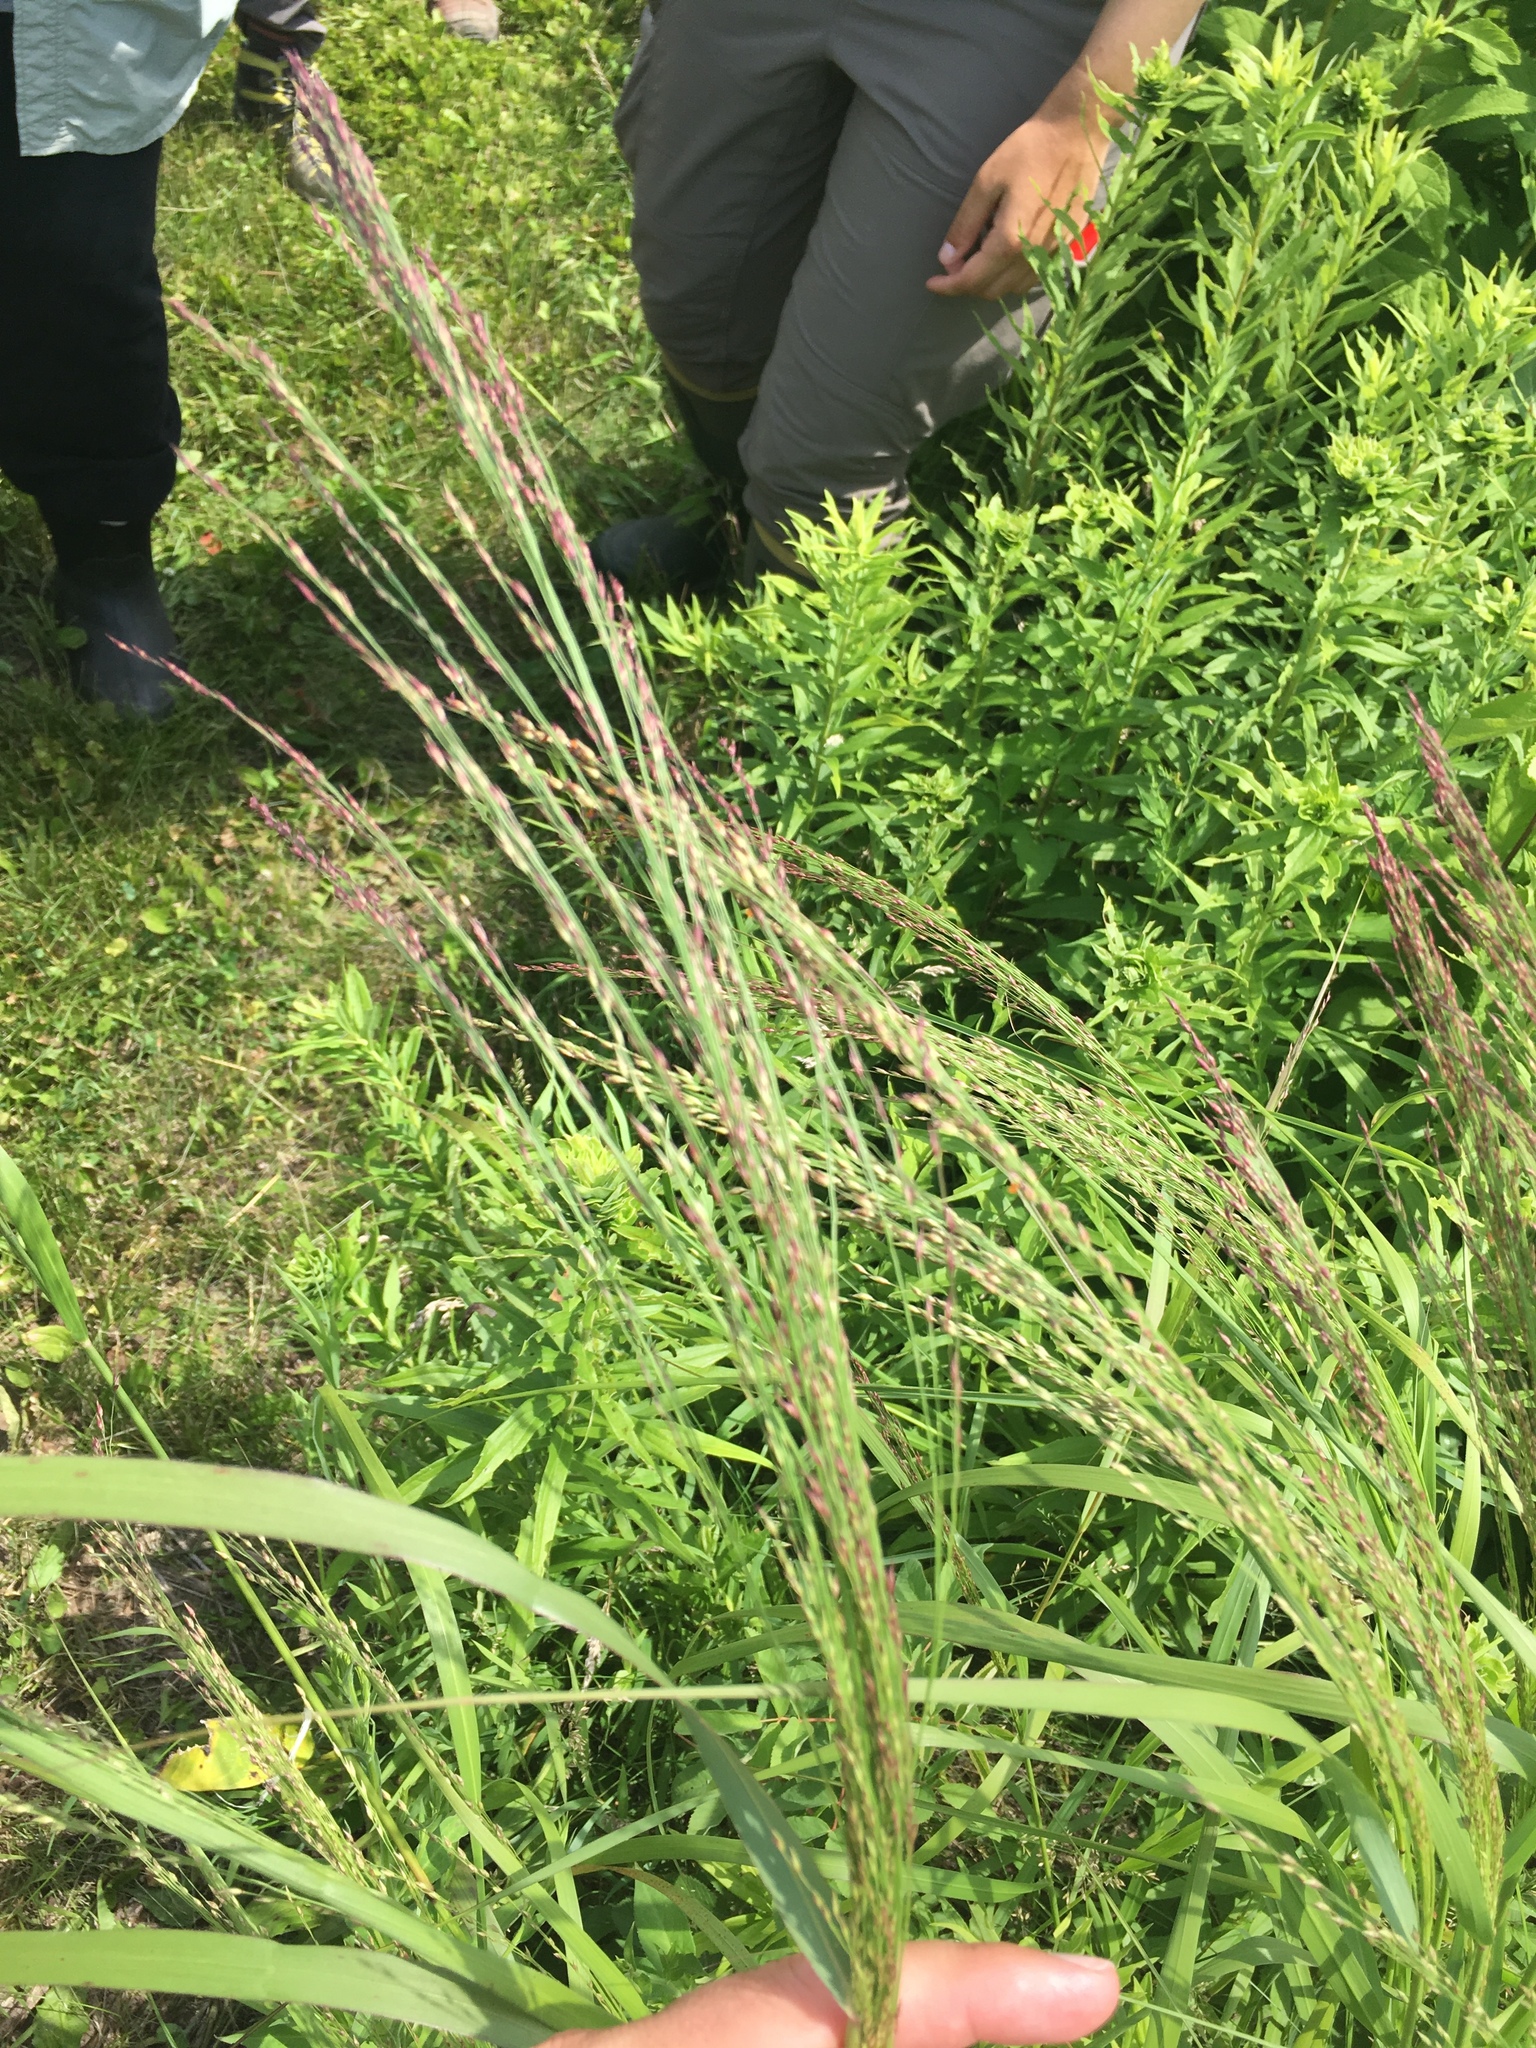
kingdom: Plantae
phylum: Tracheophyta
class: Liliopsida
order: Poales
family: Poaceae
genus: Panicum
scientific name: Panicum virgatum
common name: Switchgrass
